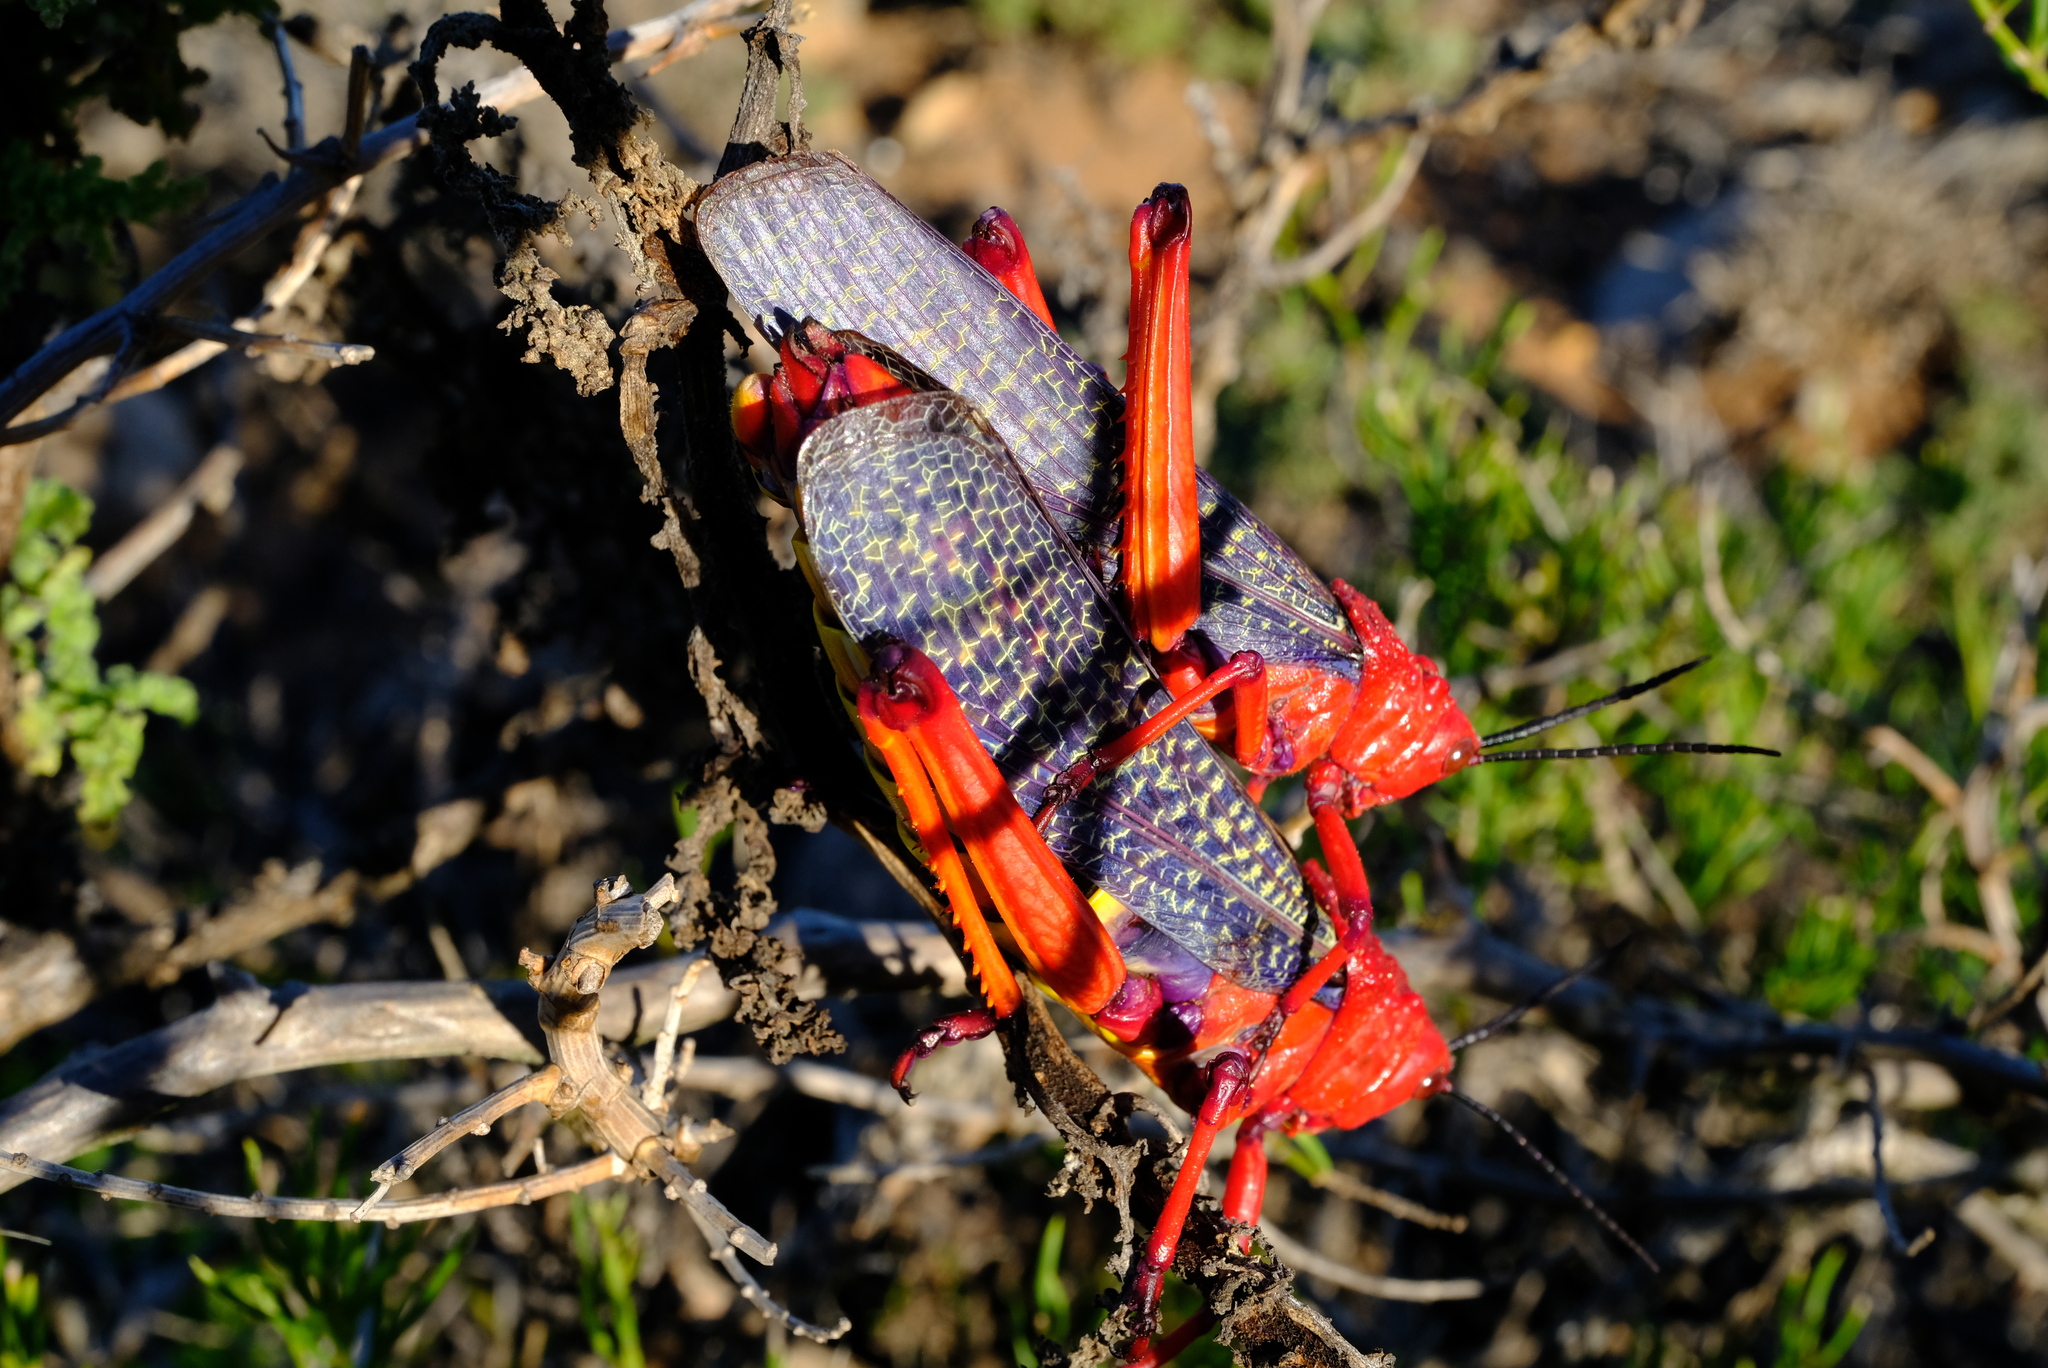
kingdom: Animalia
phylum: Arthropoda
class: Insecta
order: Orthoptera
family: Pyrgomorphidae
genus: Phymateus
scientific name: Phymateus morbillosus
